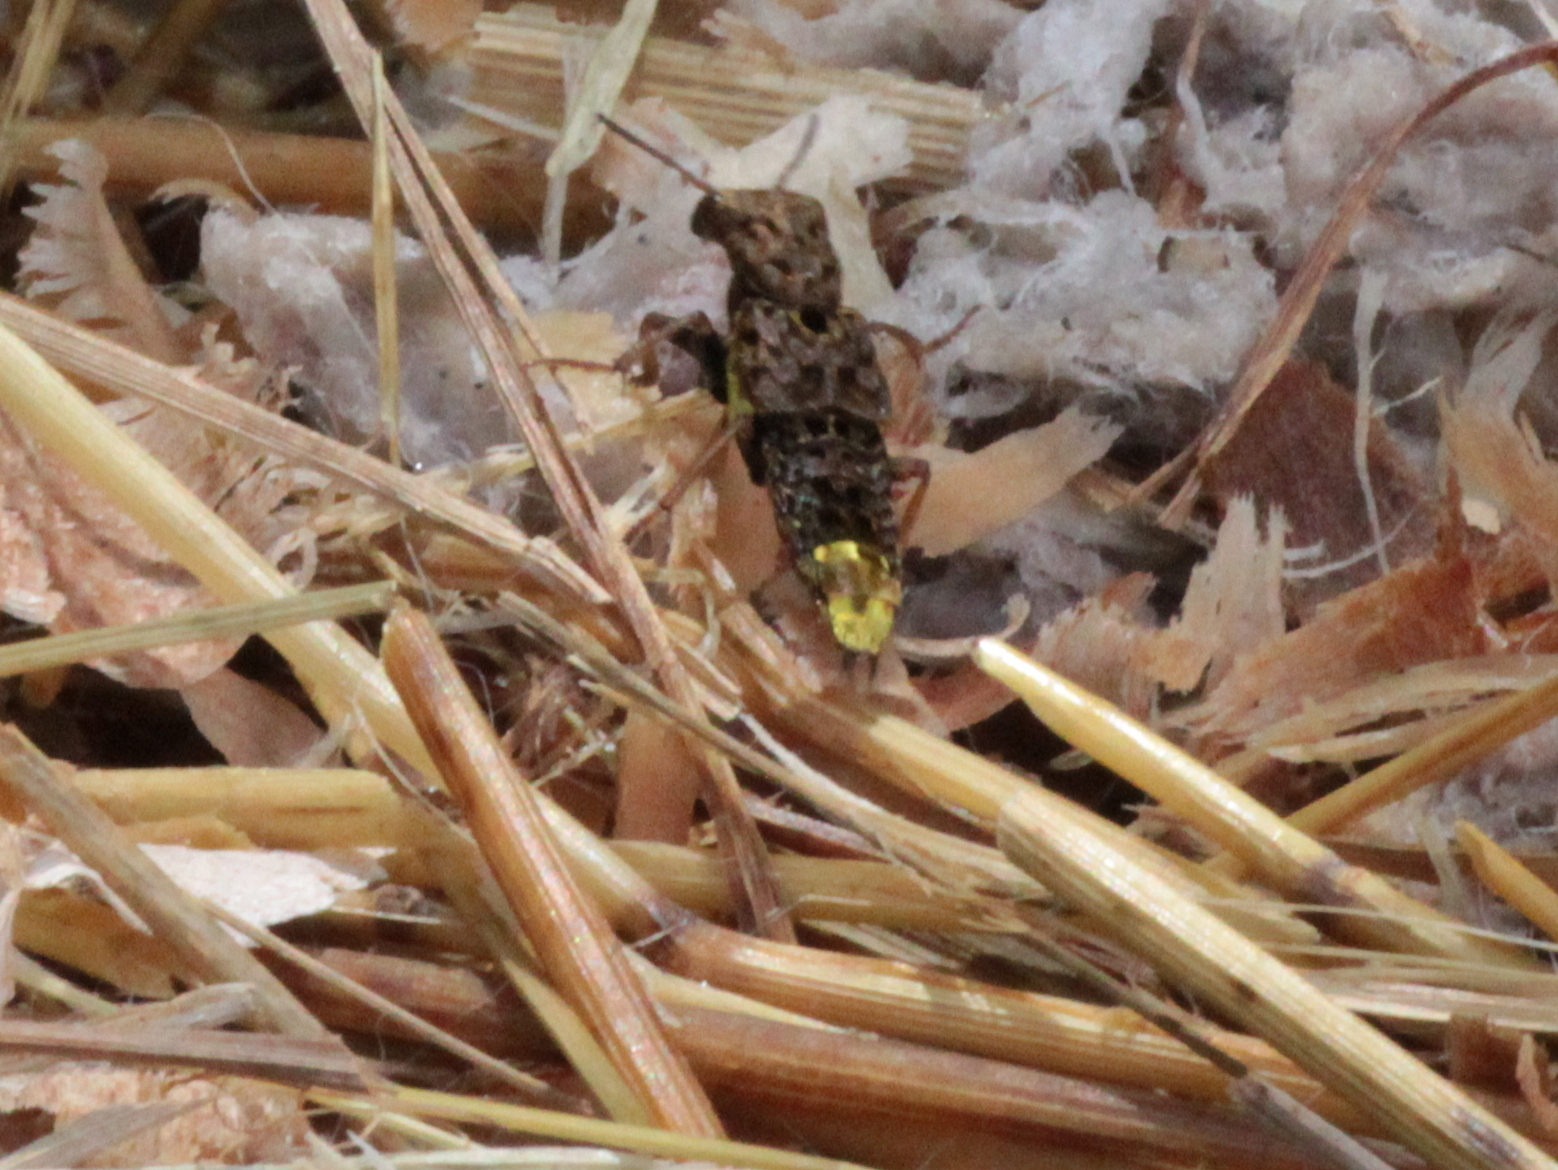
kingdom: Animalia
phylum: Arthropoda
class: Insecta
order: Coleoptera
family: Staphylinidae
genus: Ontholestes
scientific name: Ontholestes cingulatus
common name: Gold-and-brown rove beetle
